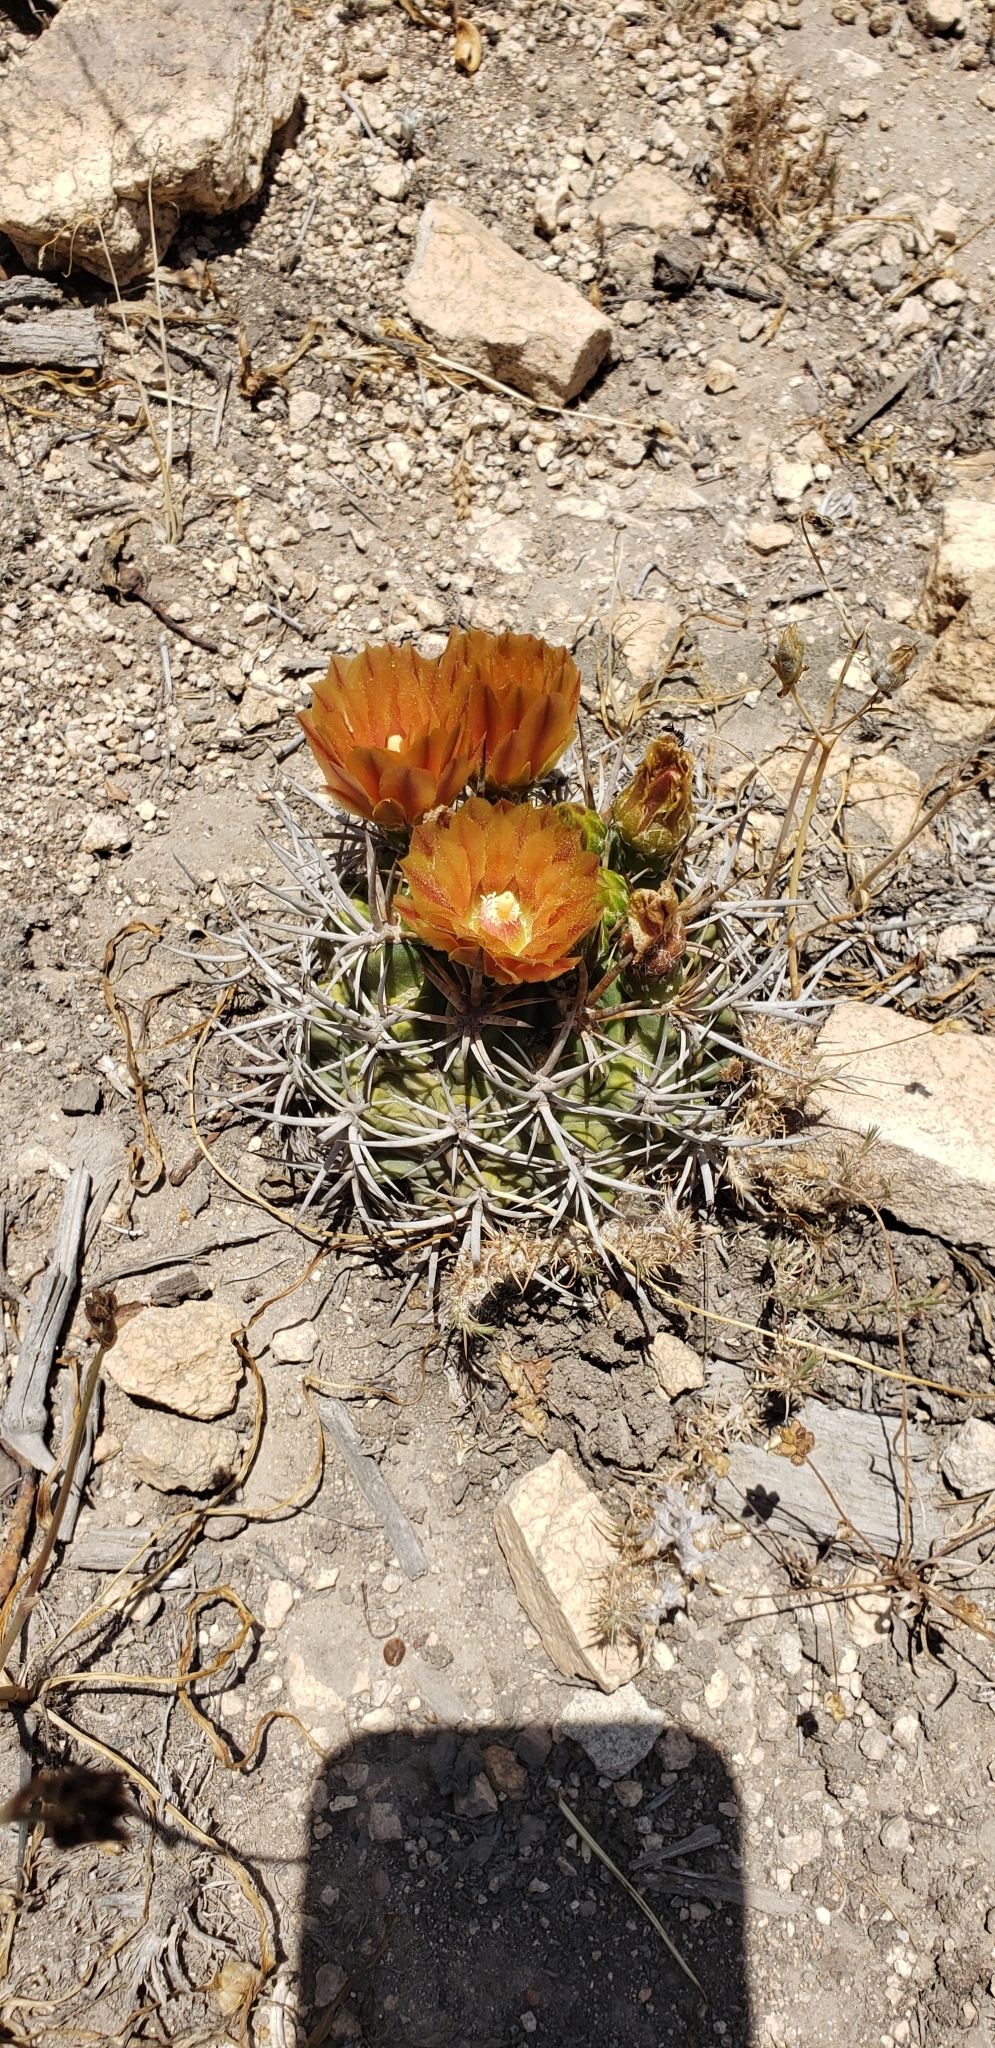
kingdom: Plantae
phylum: Tracheophyta
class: Magnoliopsida
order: Caryophyllales
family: Cactaceae
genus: Eriosyce
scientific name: Eriosyce
